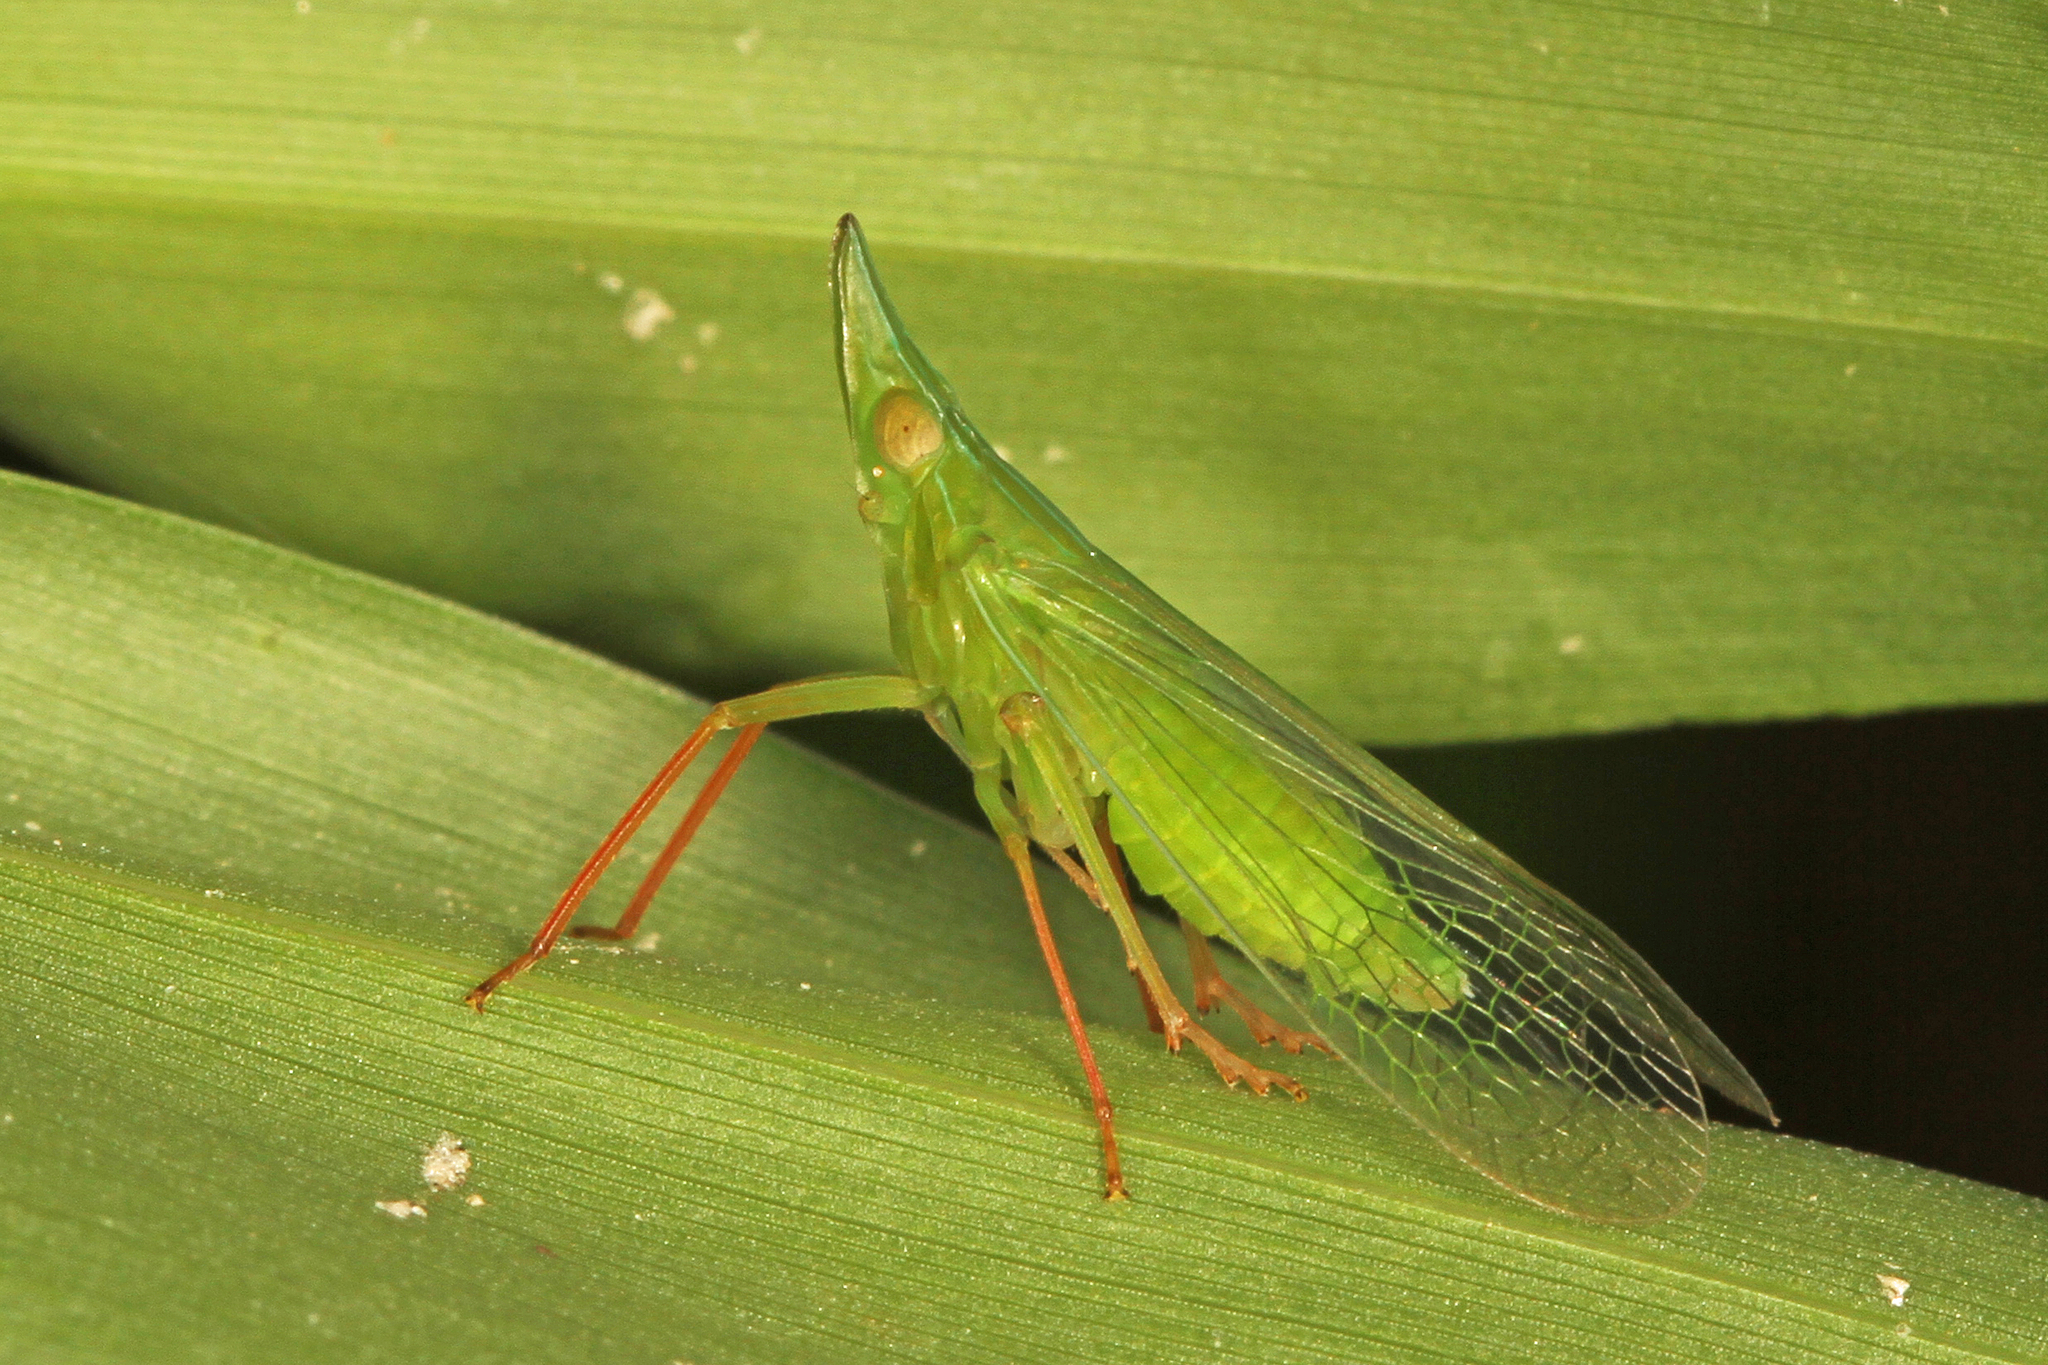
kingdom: Animalia
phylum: Arthropoda
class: Insecta
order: Hemiptera
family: Dictyopharidae
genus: Rhynchomitra
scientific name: Rhynchomitra microrhina
